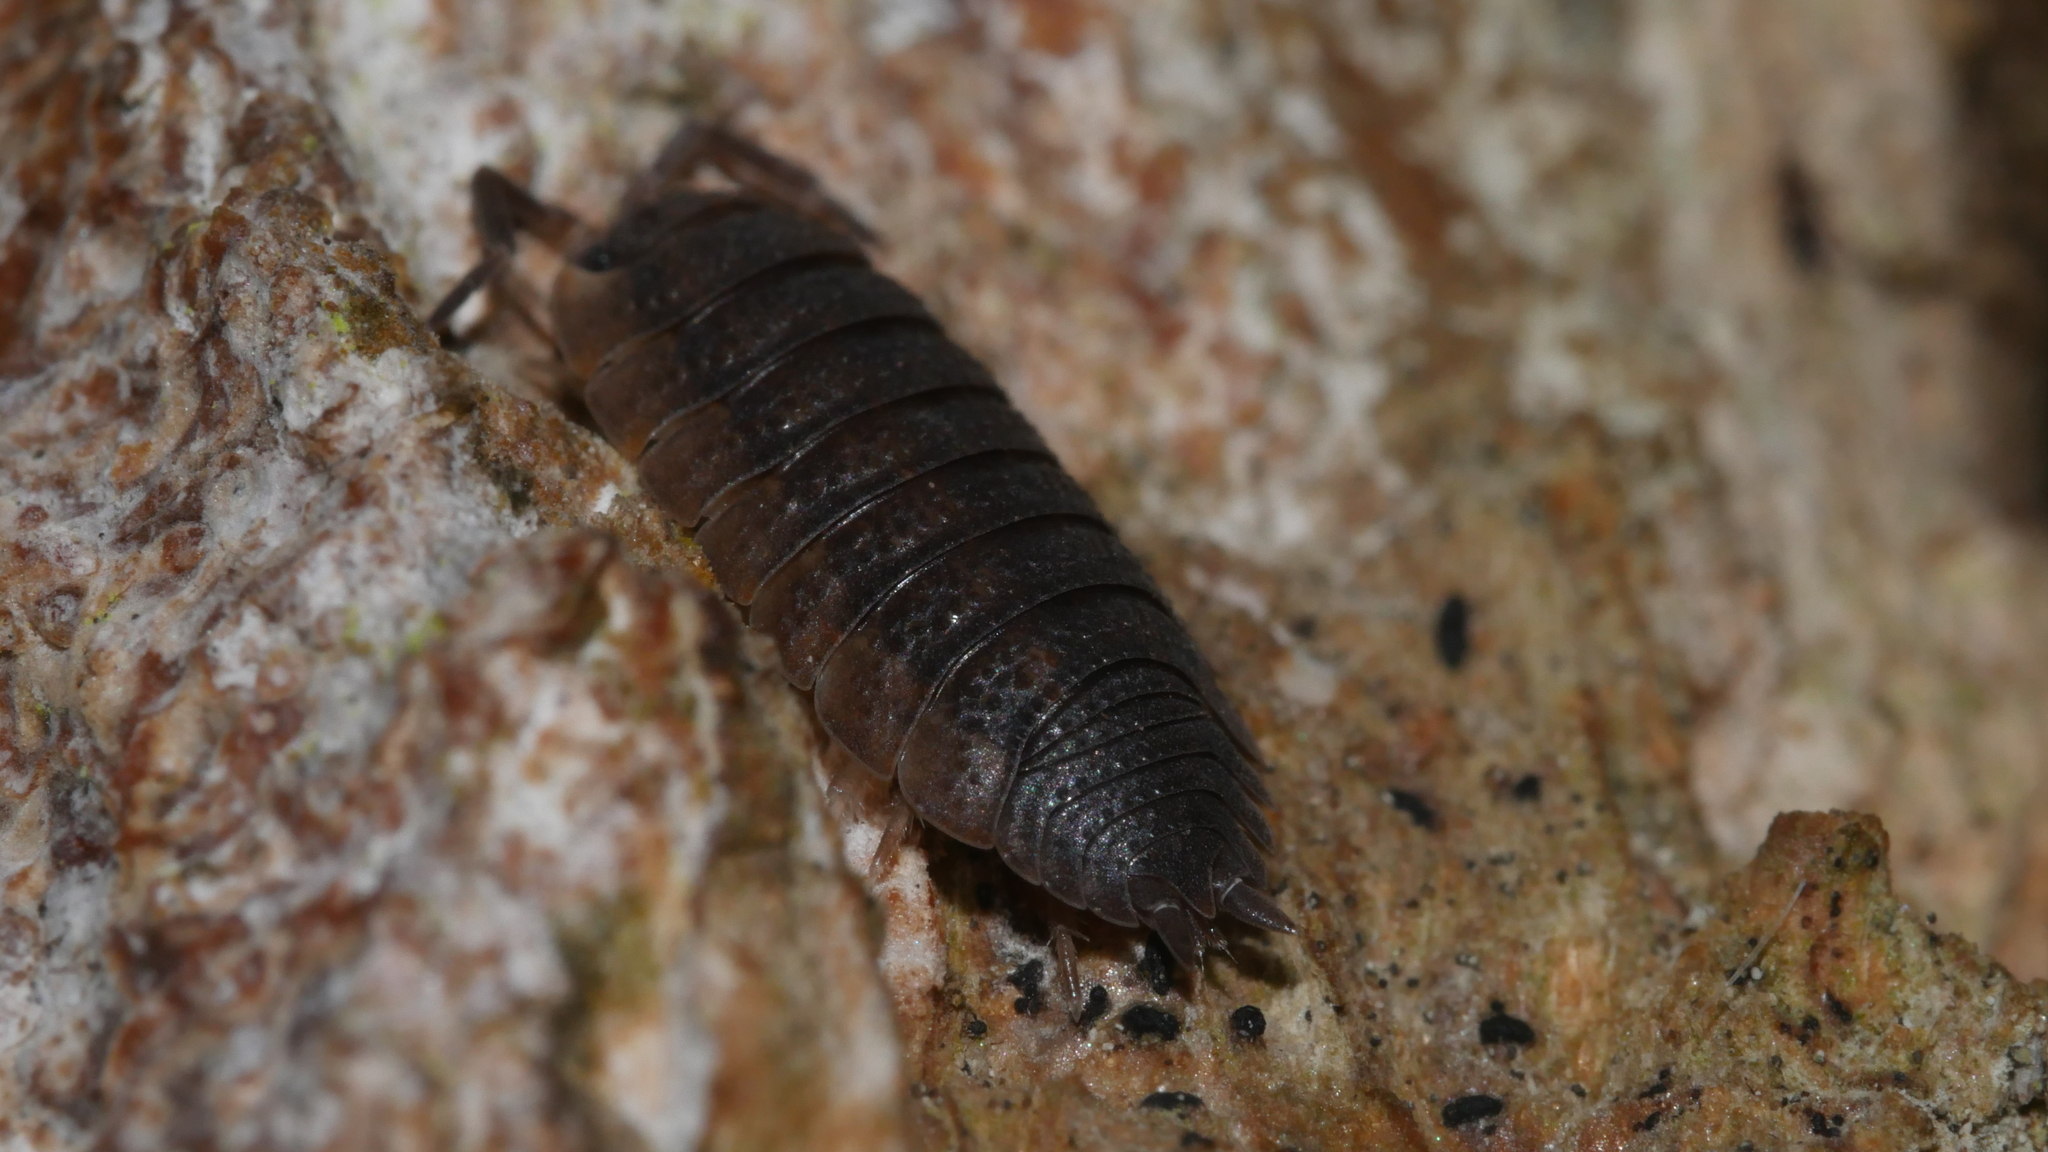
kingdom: Animalia
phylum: Arthropoda
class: Malacostraca
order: Isopoda
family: Porcellionidae
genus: Porcellio
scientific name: Porcellio scaber
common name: Common rough woodlouse
